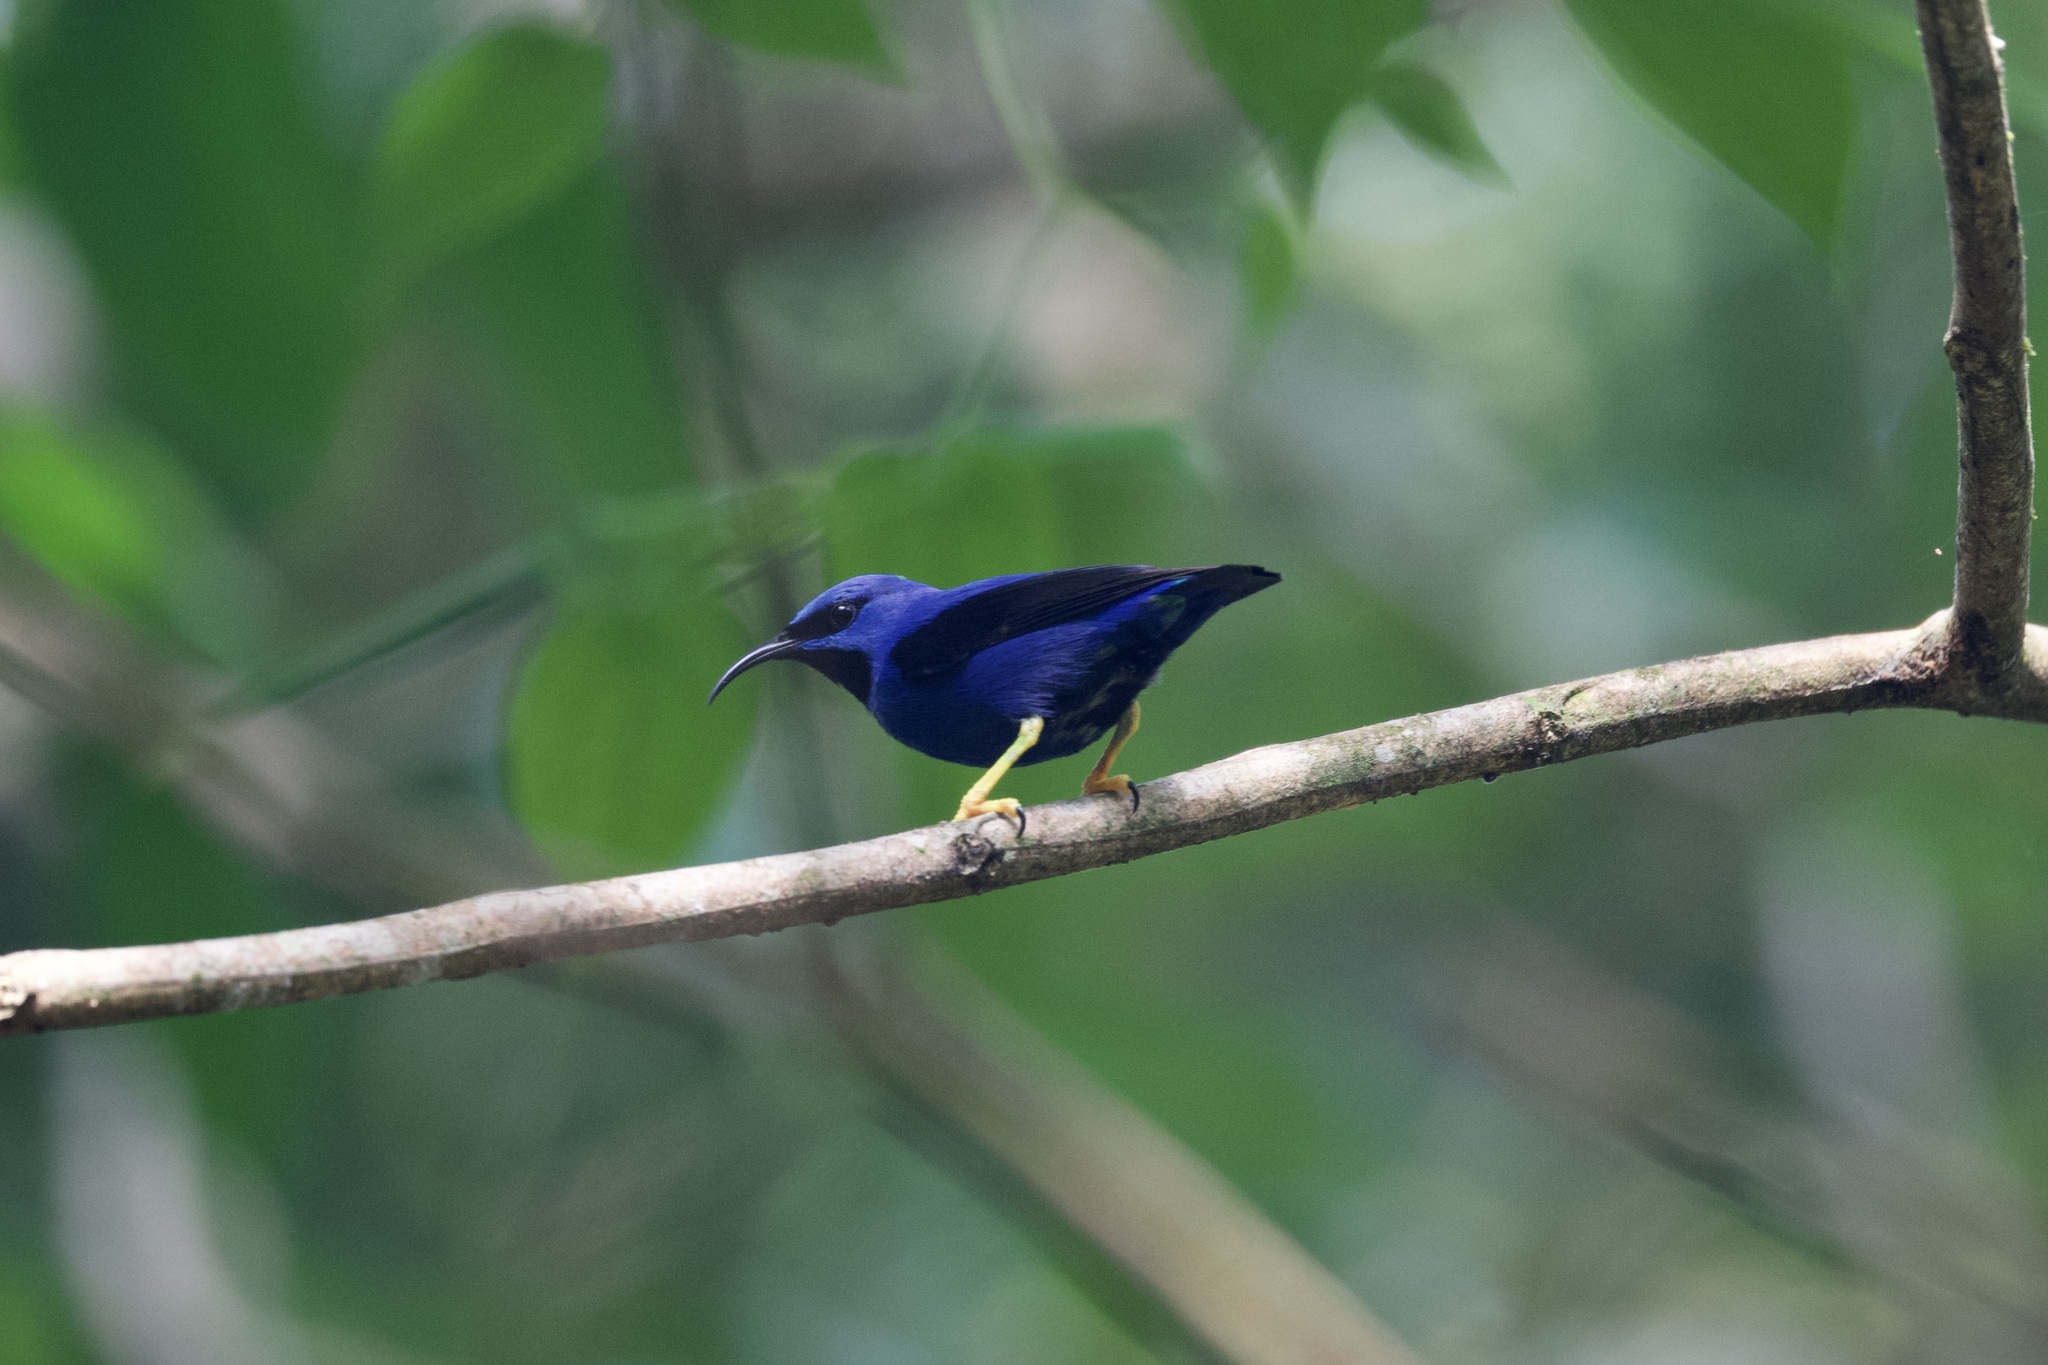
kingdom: Animalia
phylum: Chordata
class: Aves
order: Passeriformes
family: Thraupidae
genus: Cyanerpes
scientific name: Cyanerpes caeruleus
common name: Purple honeycreeper
